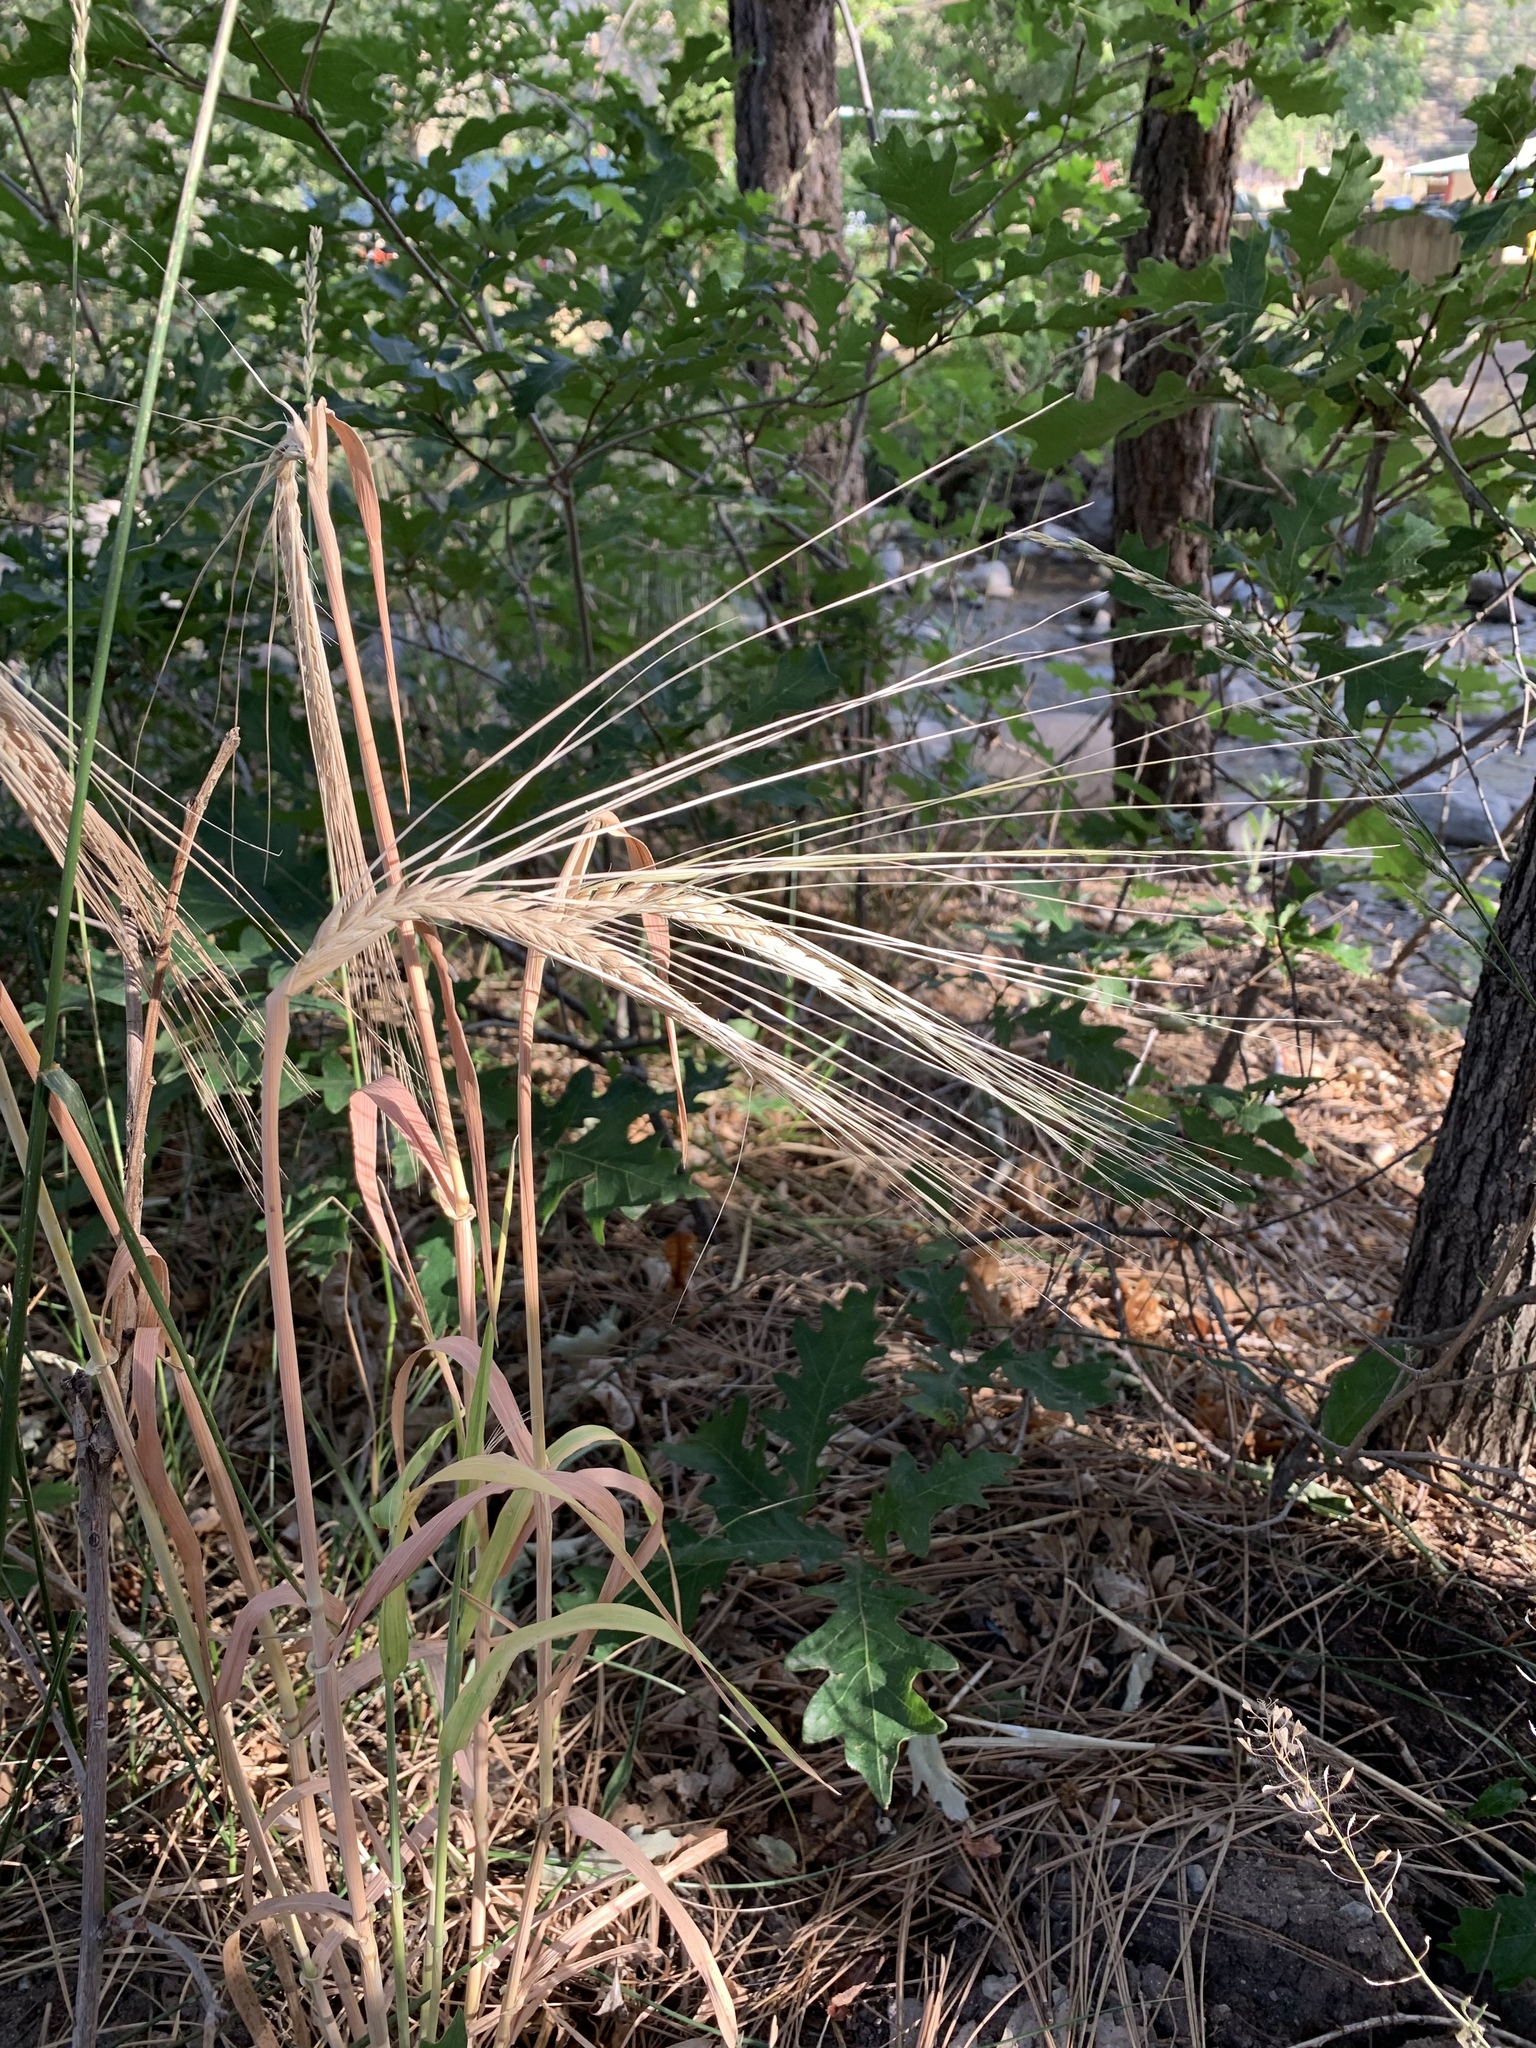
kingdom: Plantae
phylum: Tracheophyta
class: Liliopsida
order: Poales
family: Poaceae
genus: Bromus
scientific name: Bromus diandrus
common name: Ripgut brome
